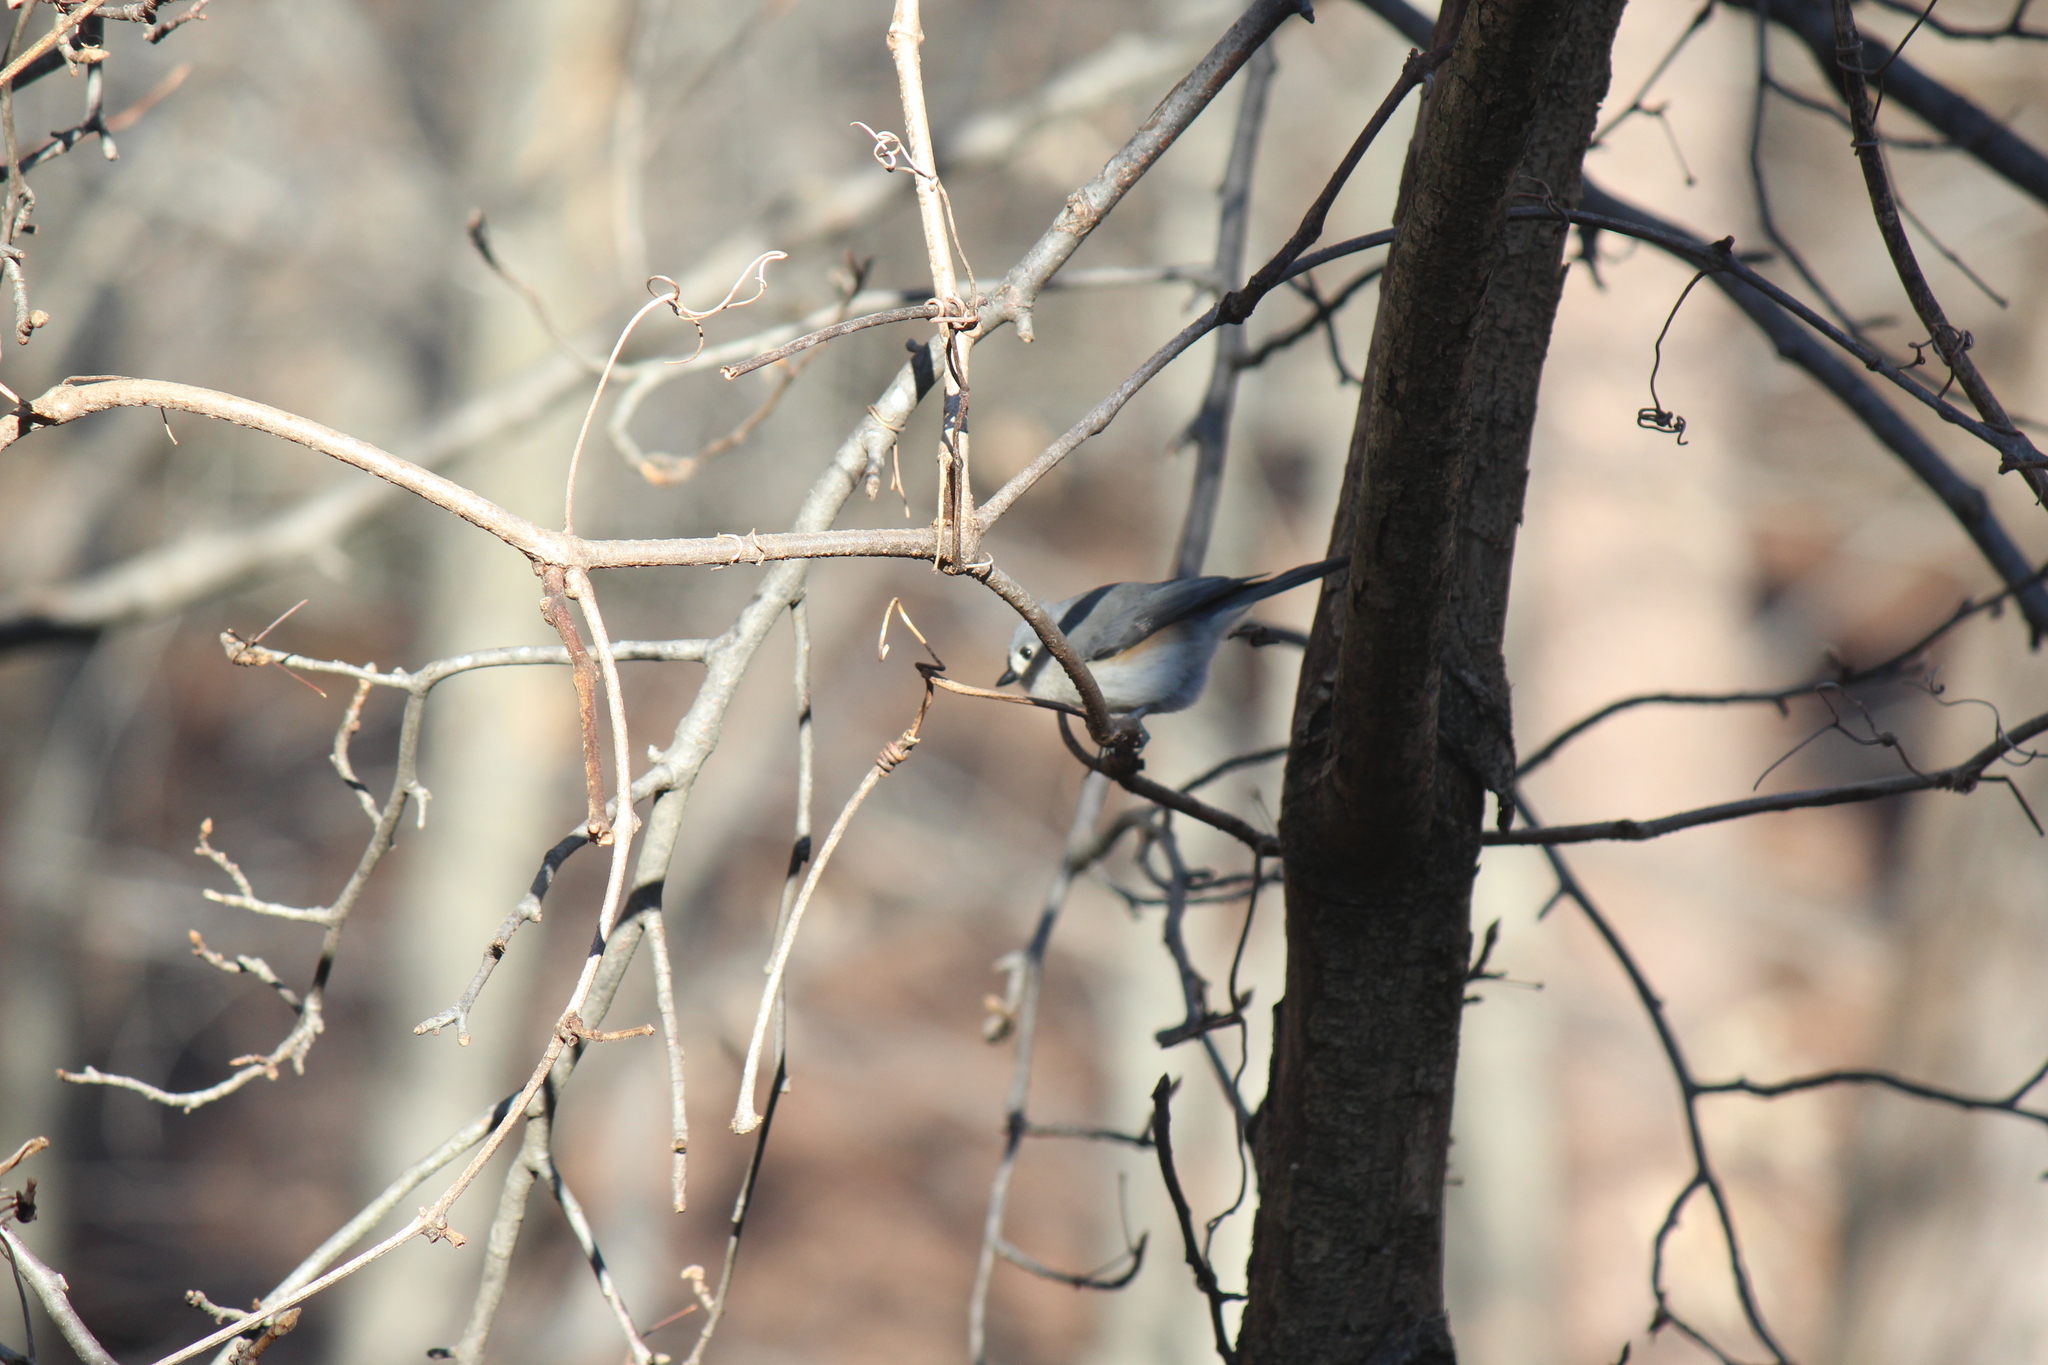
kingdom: Animalia
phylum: Chordata
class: Aves
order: Passeriformes
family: Paridae
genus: Baeolophus
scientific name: Baeolophus bicolor
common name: Tufted titmouse
